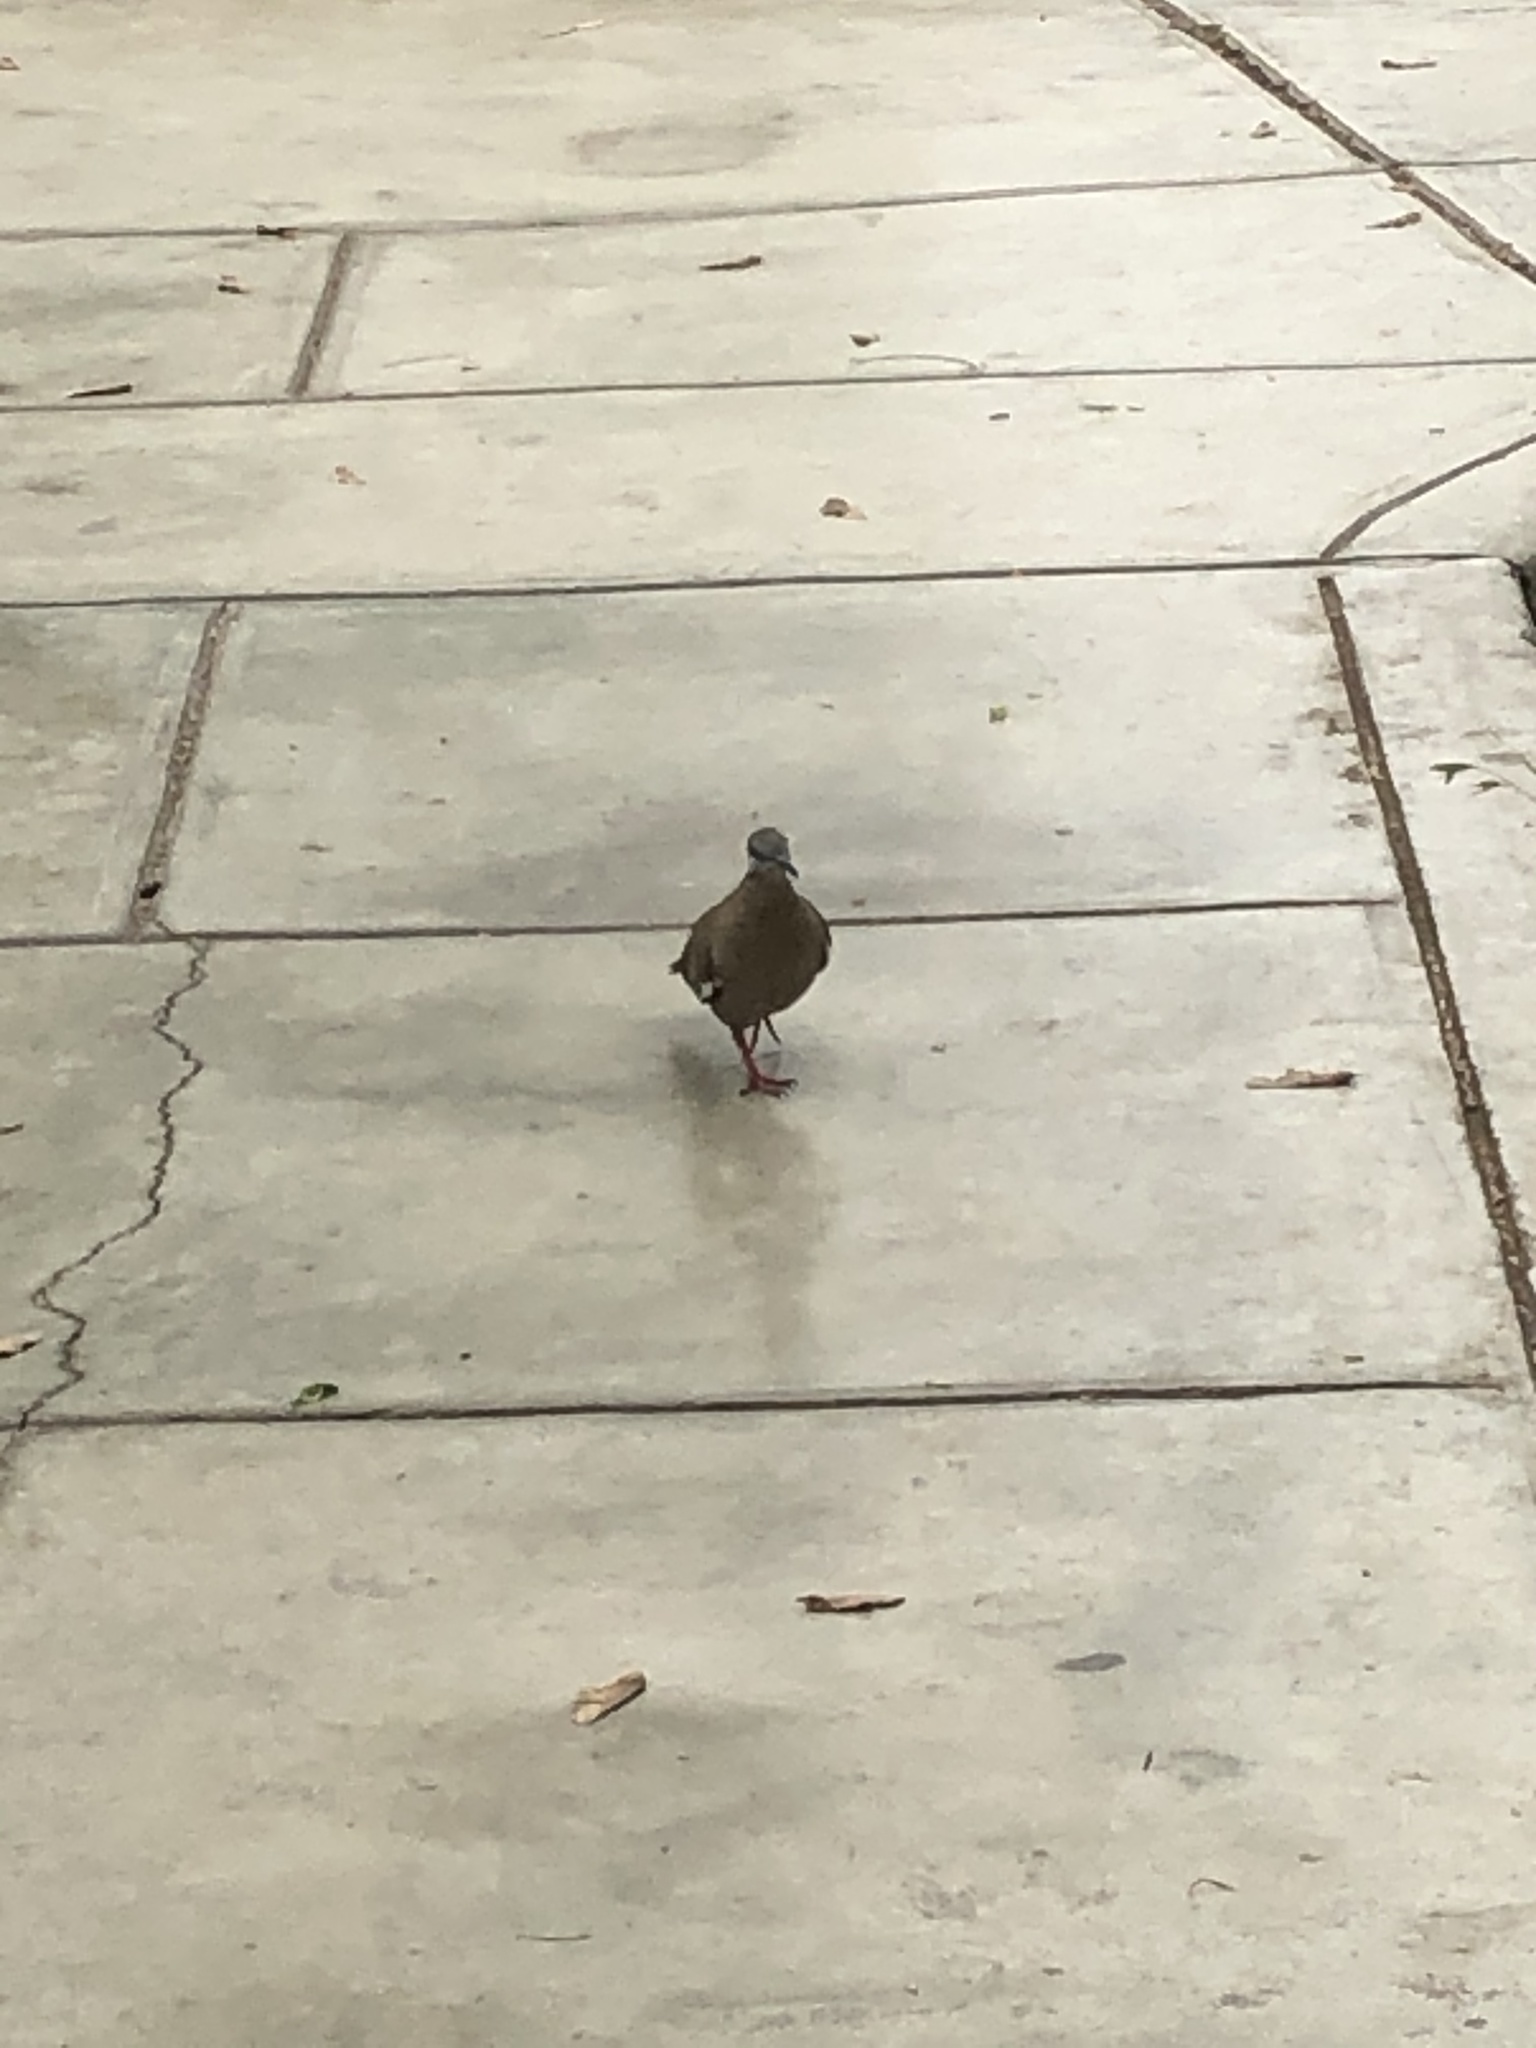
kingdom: Animalia
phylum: Chordata
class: Aves
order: Columbiformes
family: Columbidae
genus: Zenaida
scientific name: Zenaida meloda
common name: West peruvian dove
